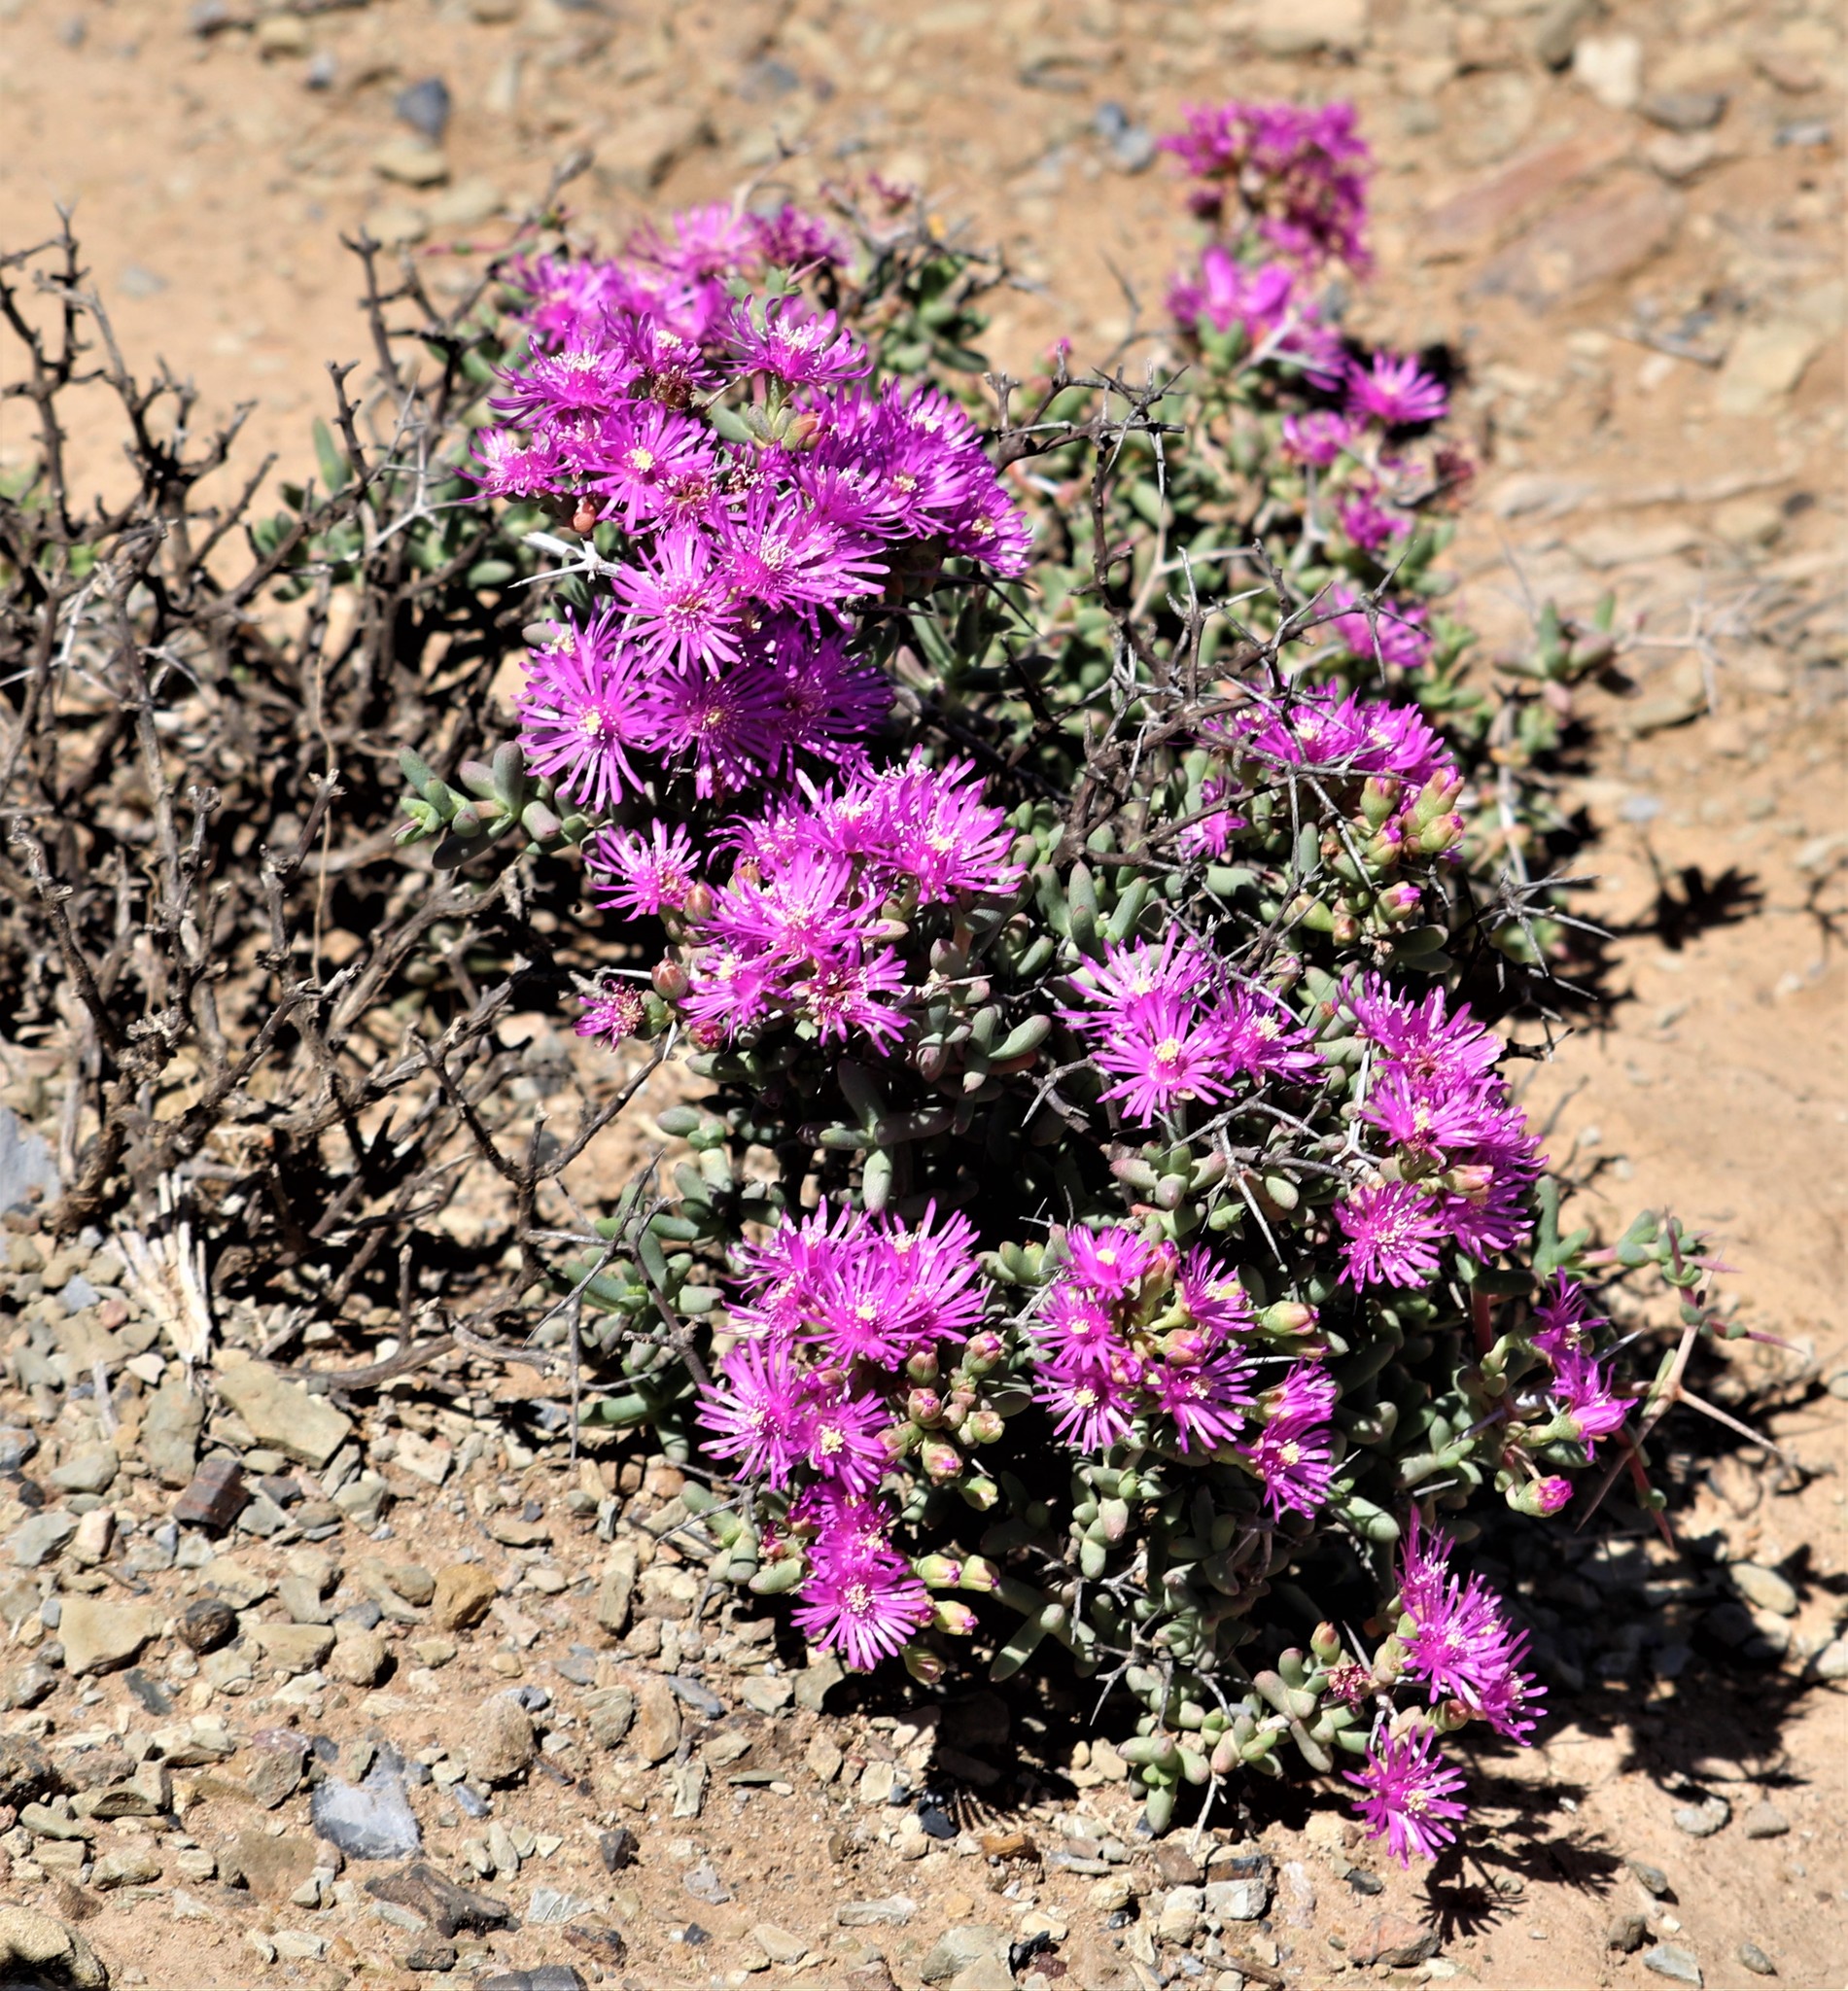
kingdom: Plantae
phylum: Tracheophyta
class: Magnoliopsida
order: Caryophyllales
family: Aizoaceae
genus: Ruschia
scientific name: Ruschia spinosa
